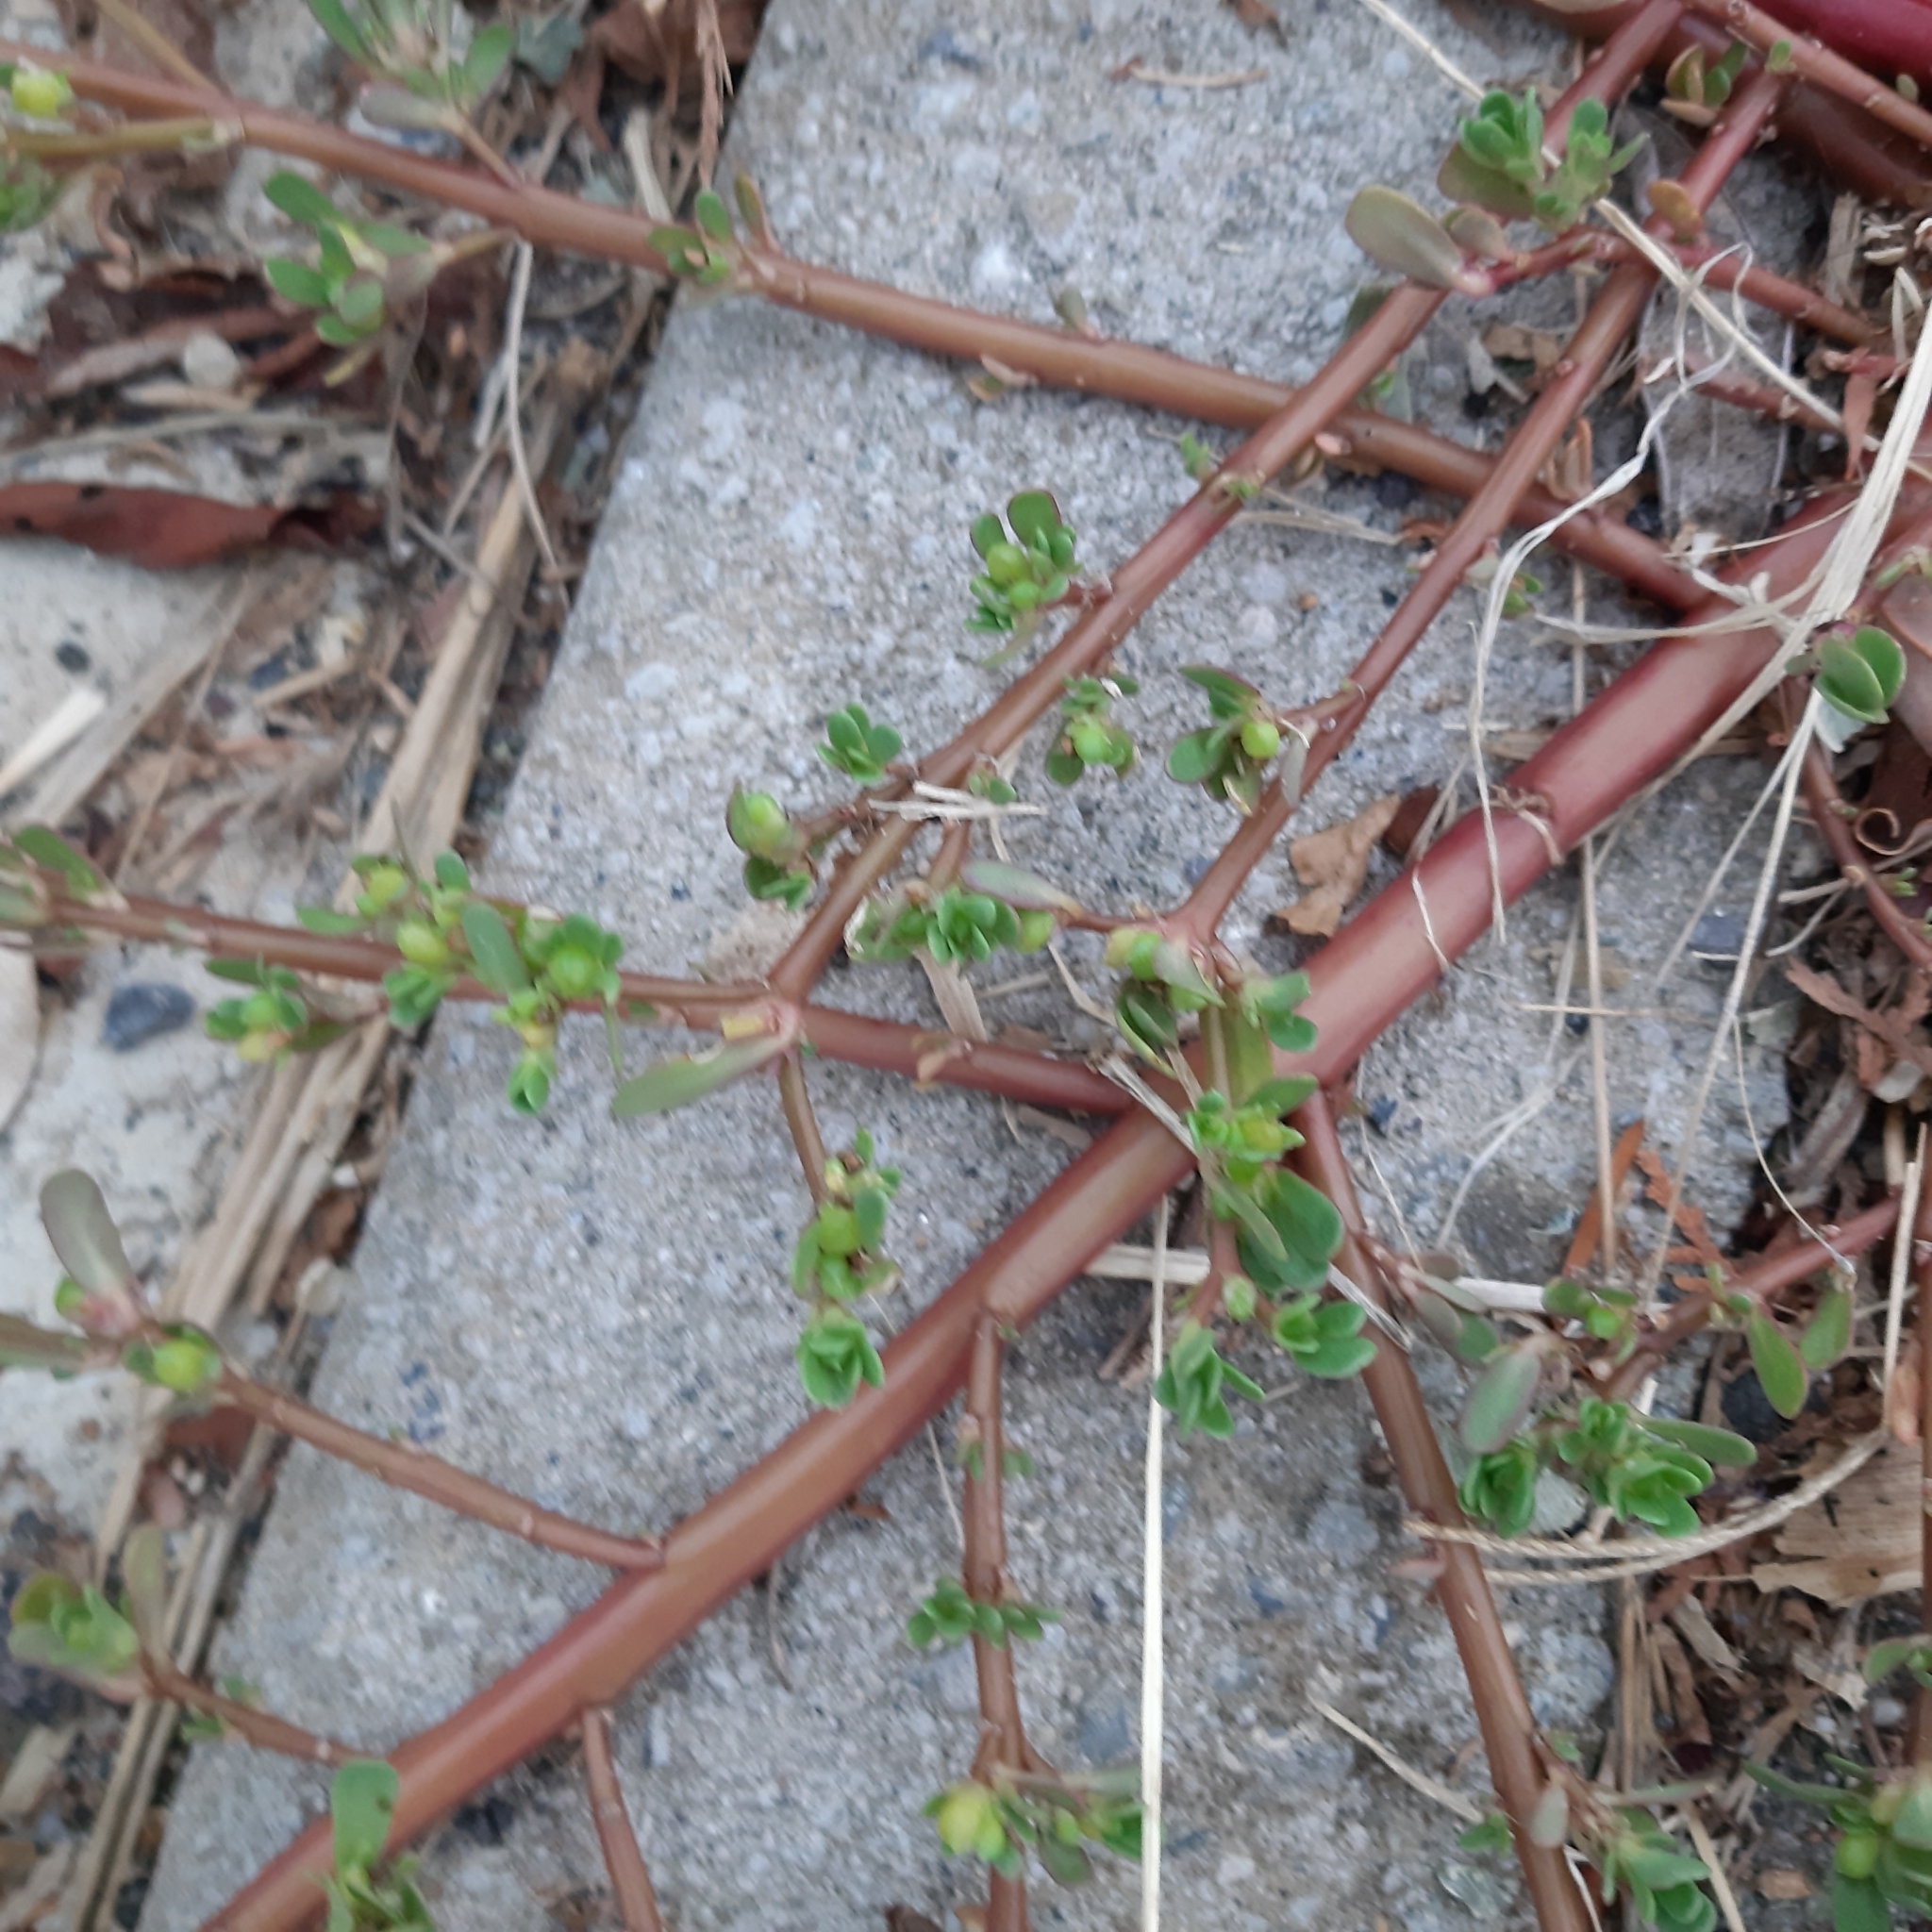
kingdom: Plantae
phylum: Tracheophyta
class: Magnoliopsida
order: Caryophyllales
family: Portulacaceae
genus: Portulaca
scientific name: Portulaca oleracea
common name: Common purslane
